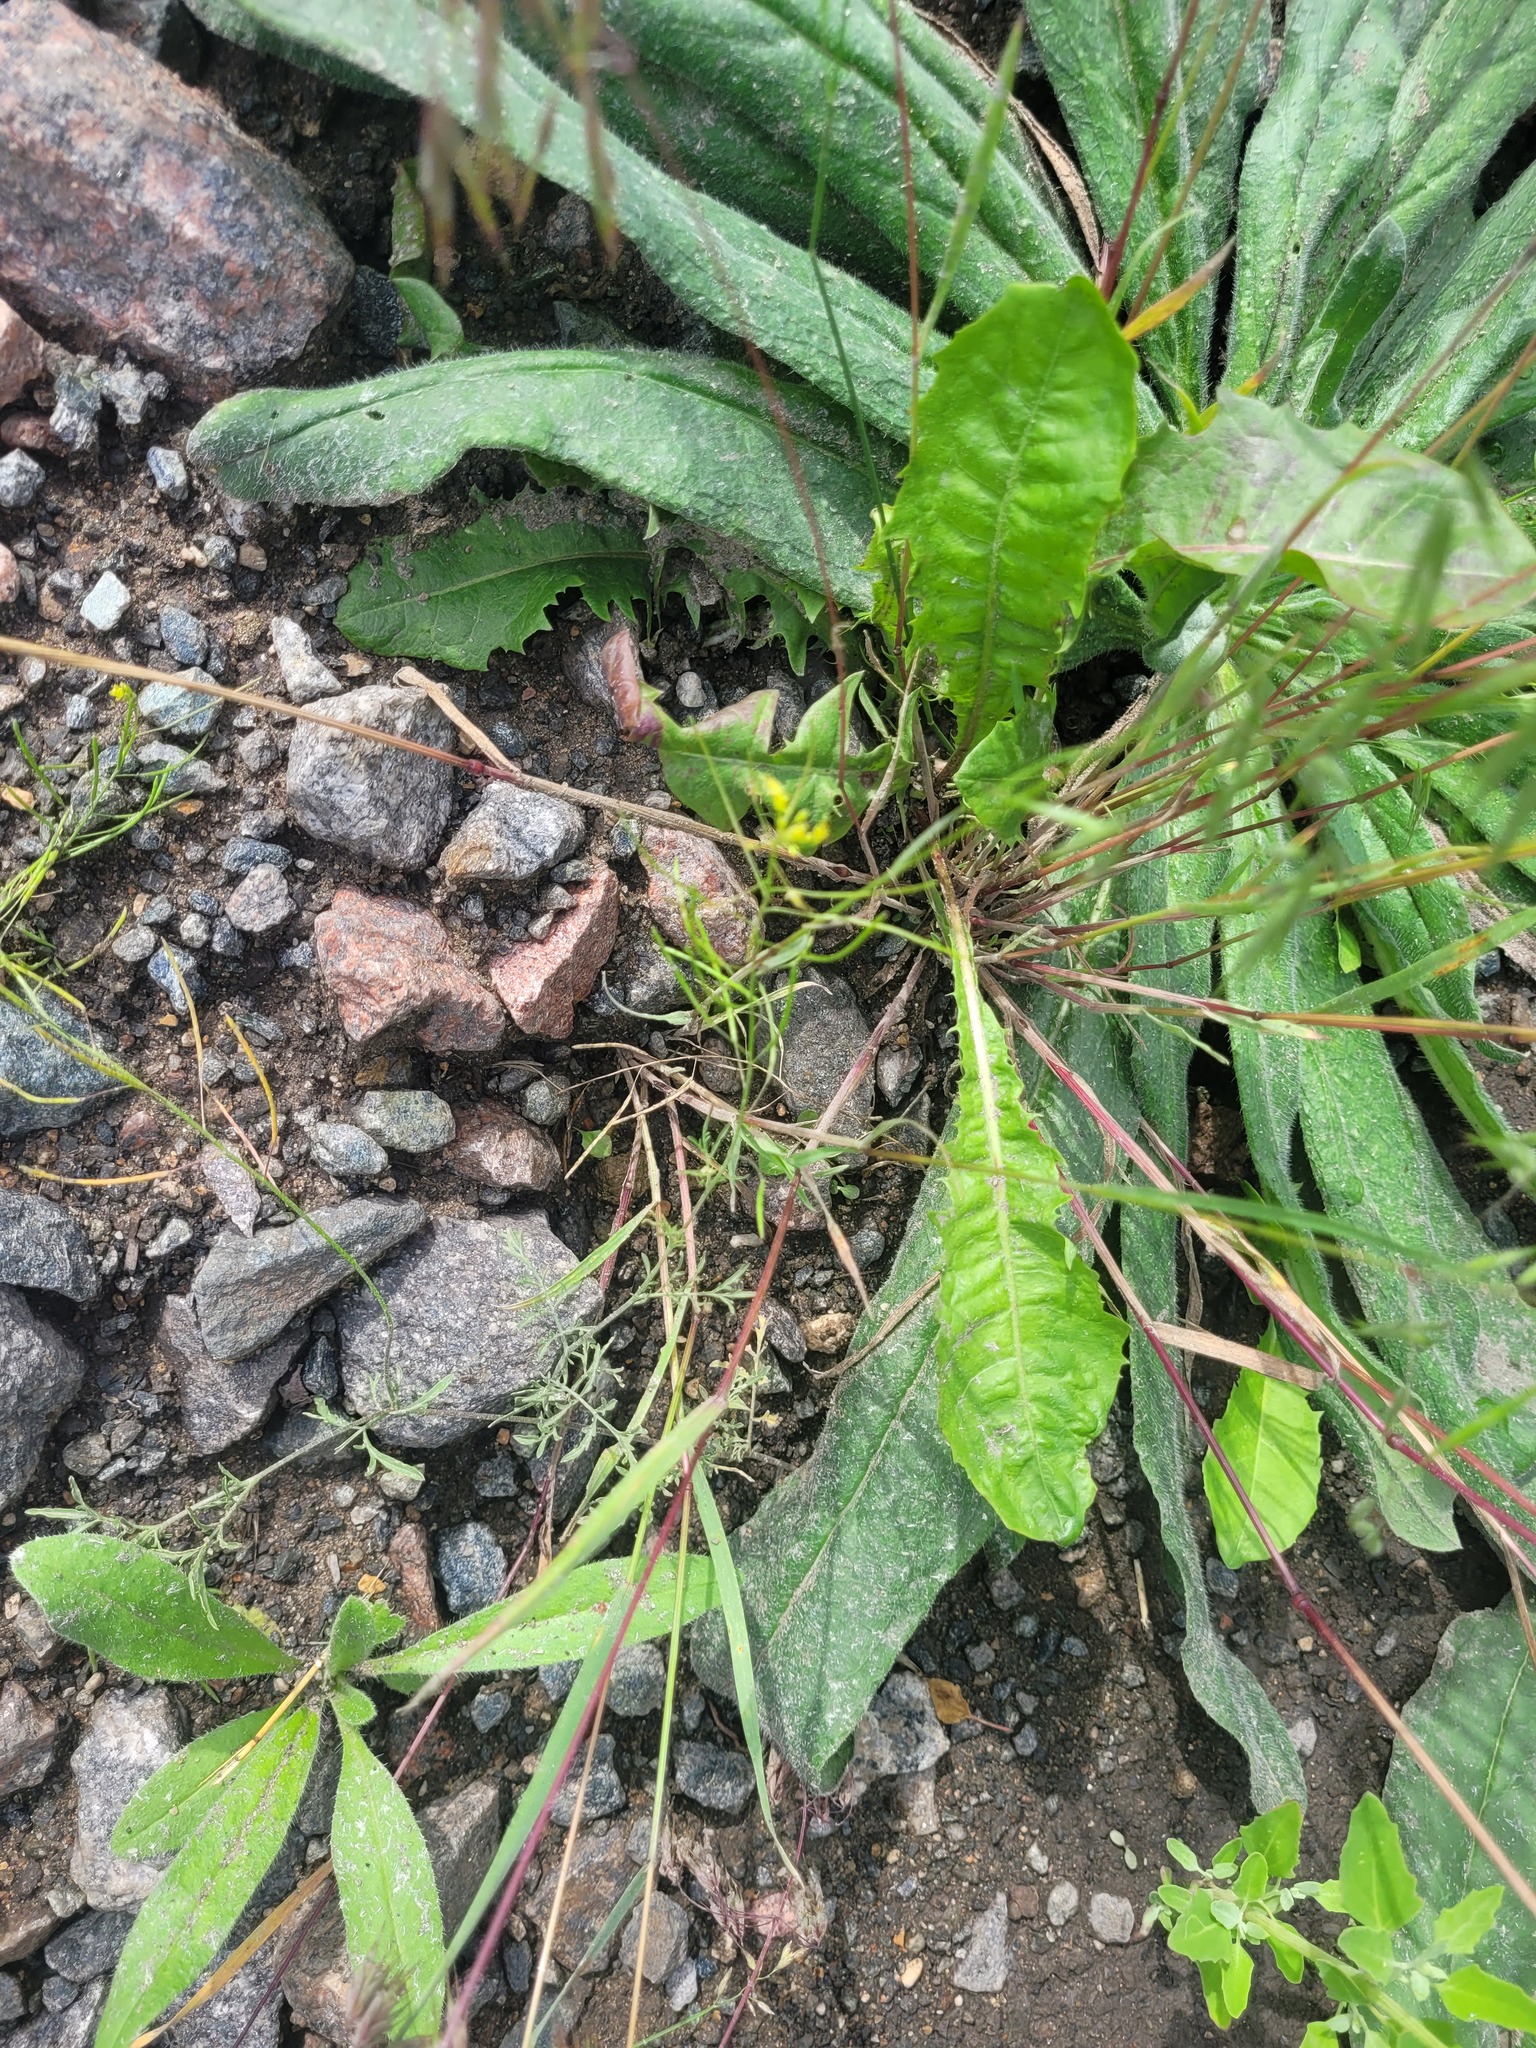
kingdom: Plantae
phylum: Tracheophyta
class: Magnoliopsida
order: Brassicales
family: Brassicaceae
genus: Descurainia
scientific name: Descurainia sophia
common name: Flixweed
